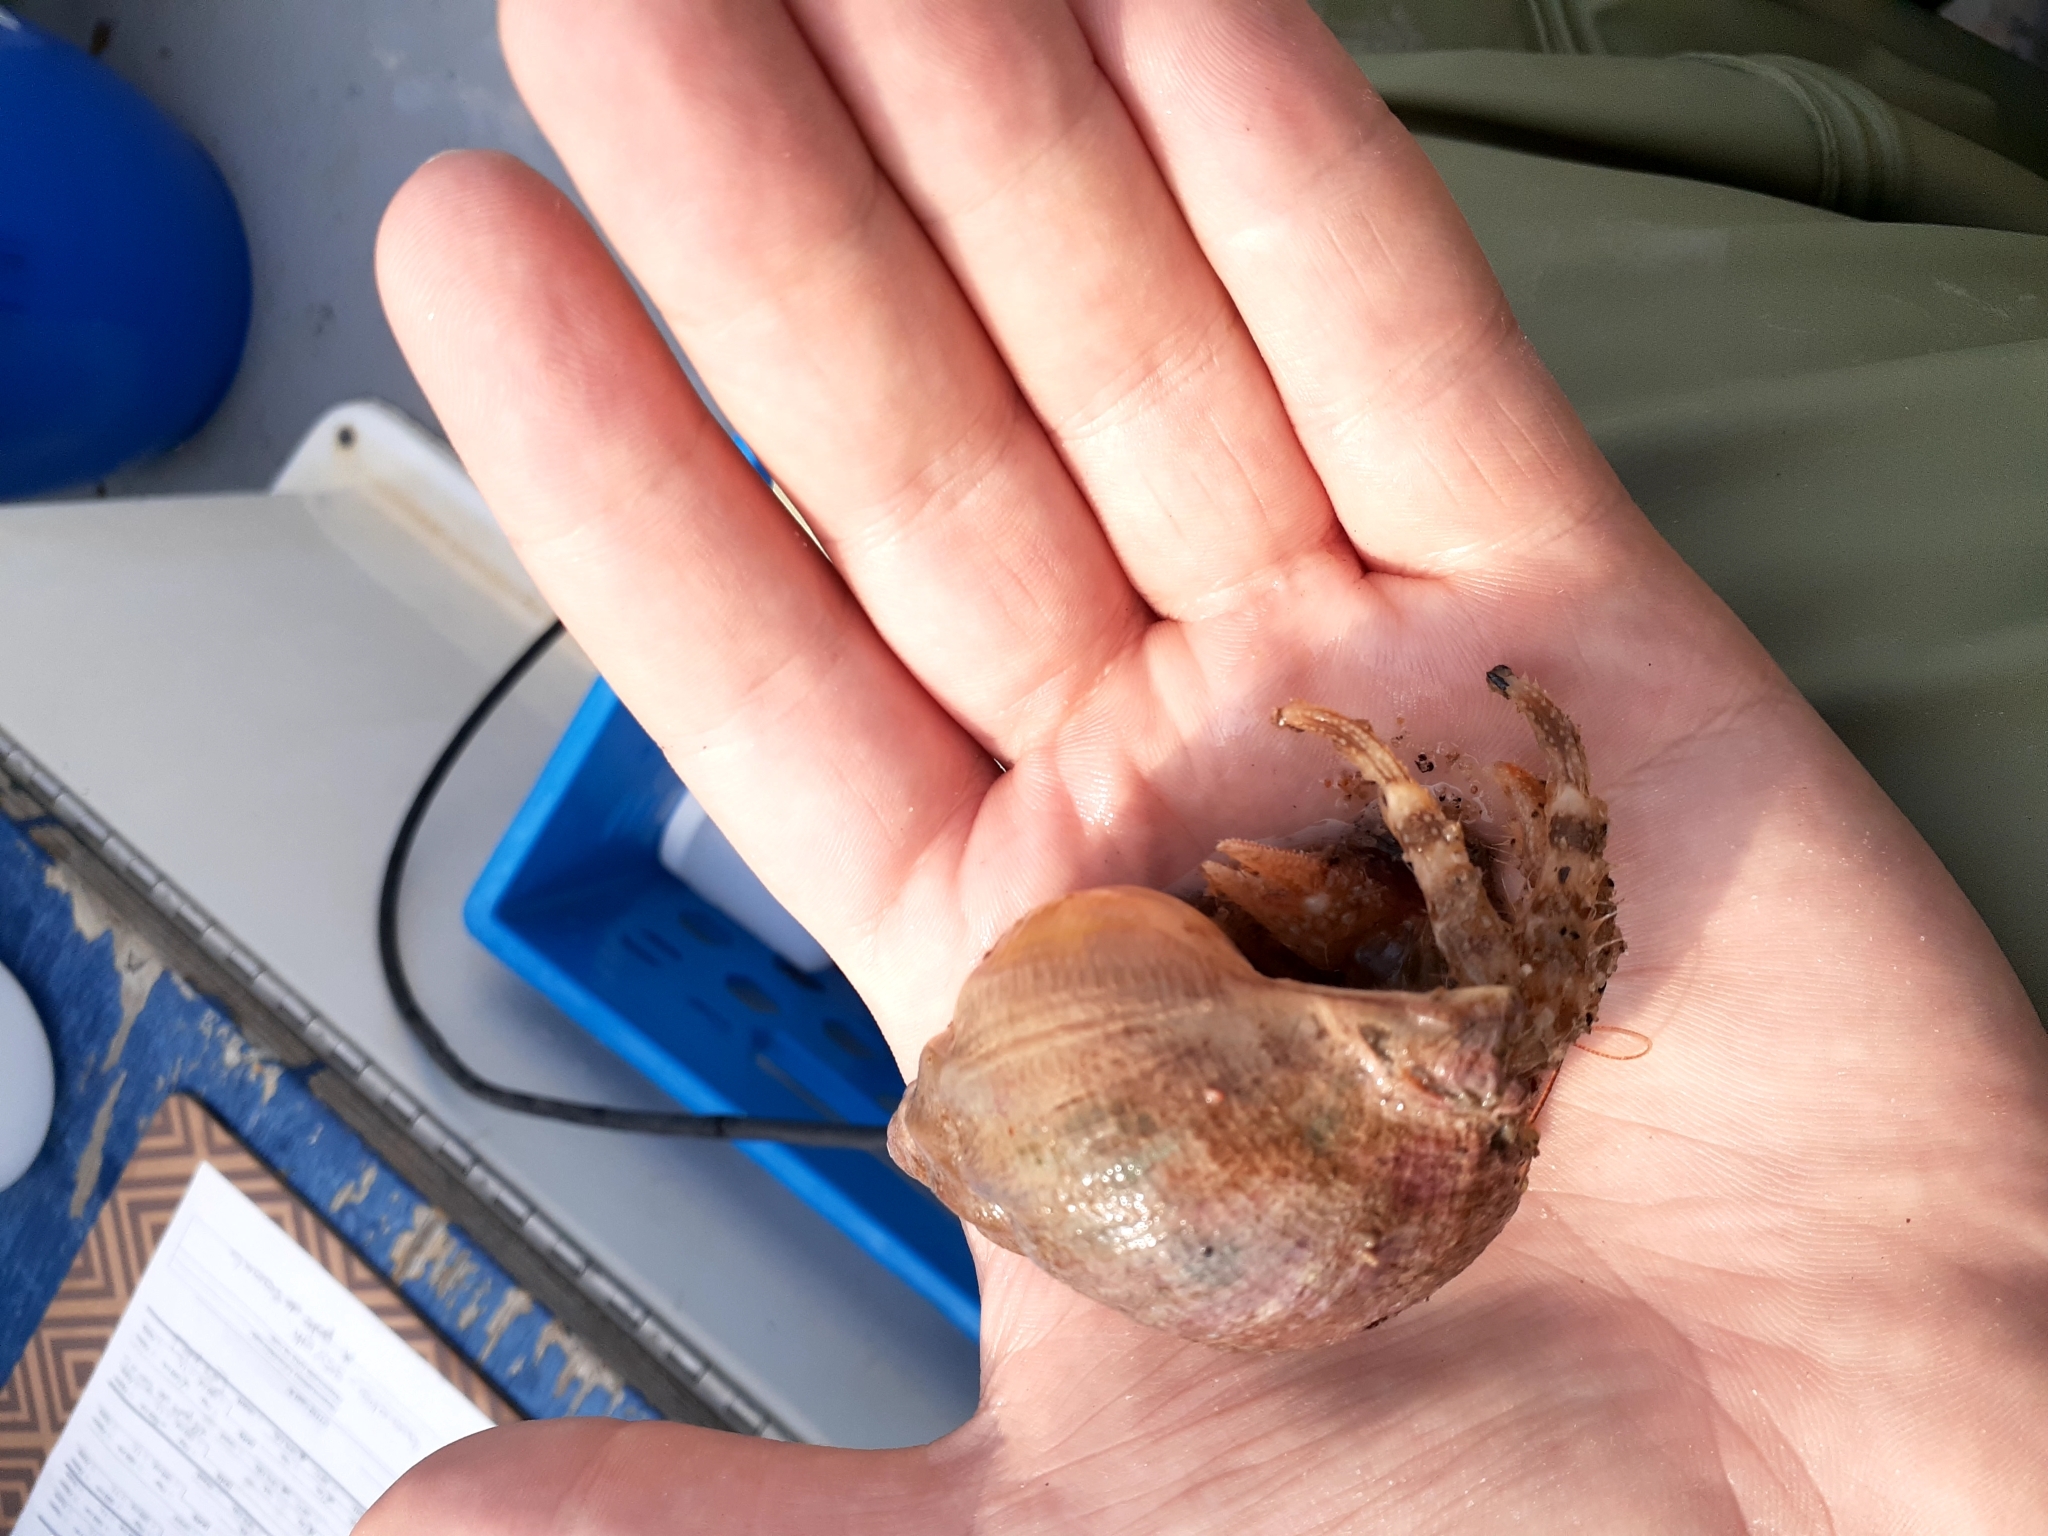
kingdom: Animalia
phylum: Arthropoda
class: Malacostraca
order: Decapoda
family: Paguridae
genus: Pagurus
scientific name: Pagurus arcuatus
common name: Bowed hermit crab
